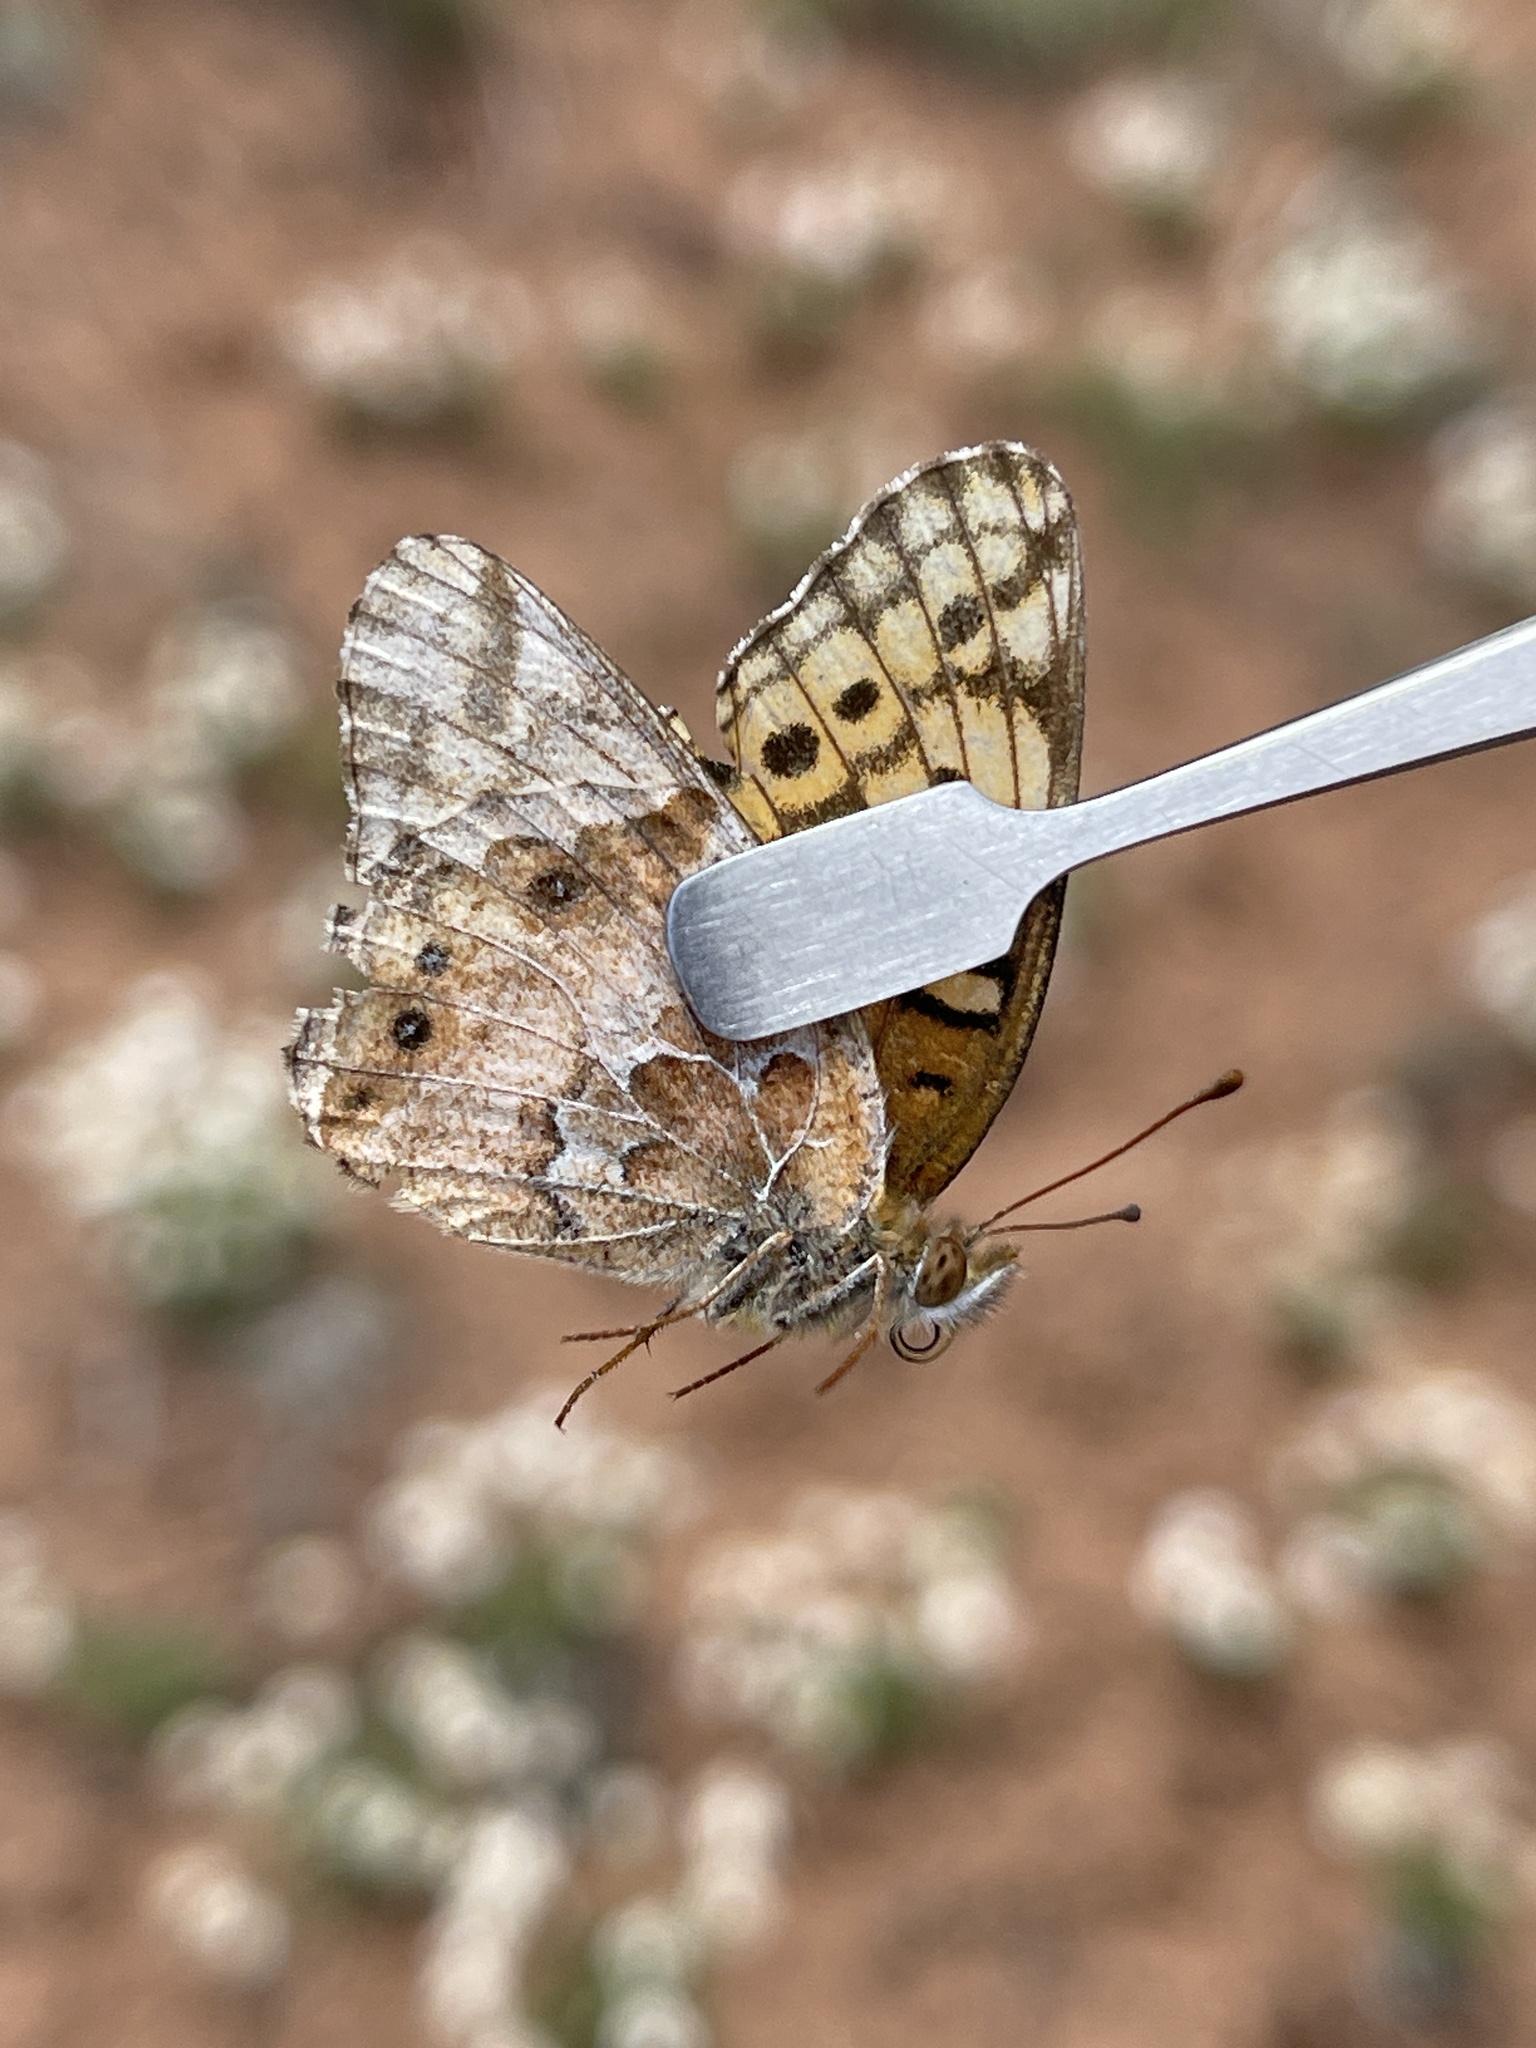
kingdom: Animalia
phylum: Arthropoda
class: Insecta
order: Lepidoptera
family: Nymphalidae
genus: Euptoieta
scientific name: Euptoieta claudia
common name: Variegated fritillary
